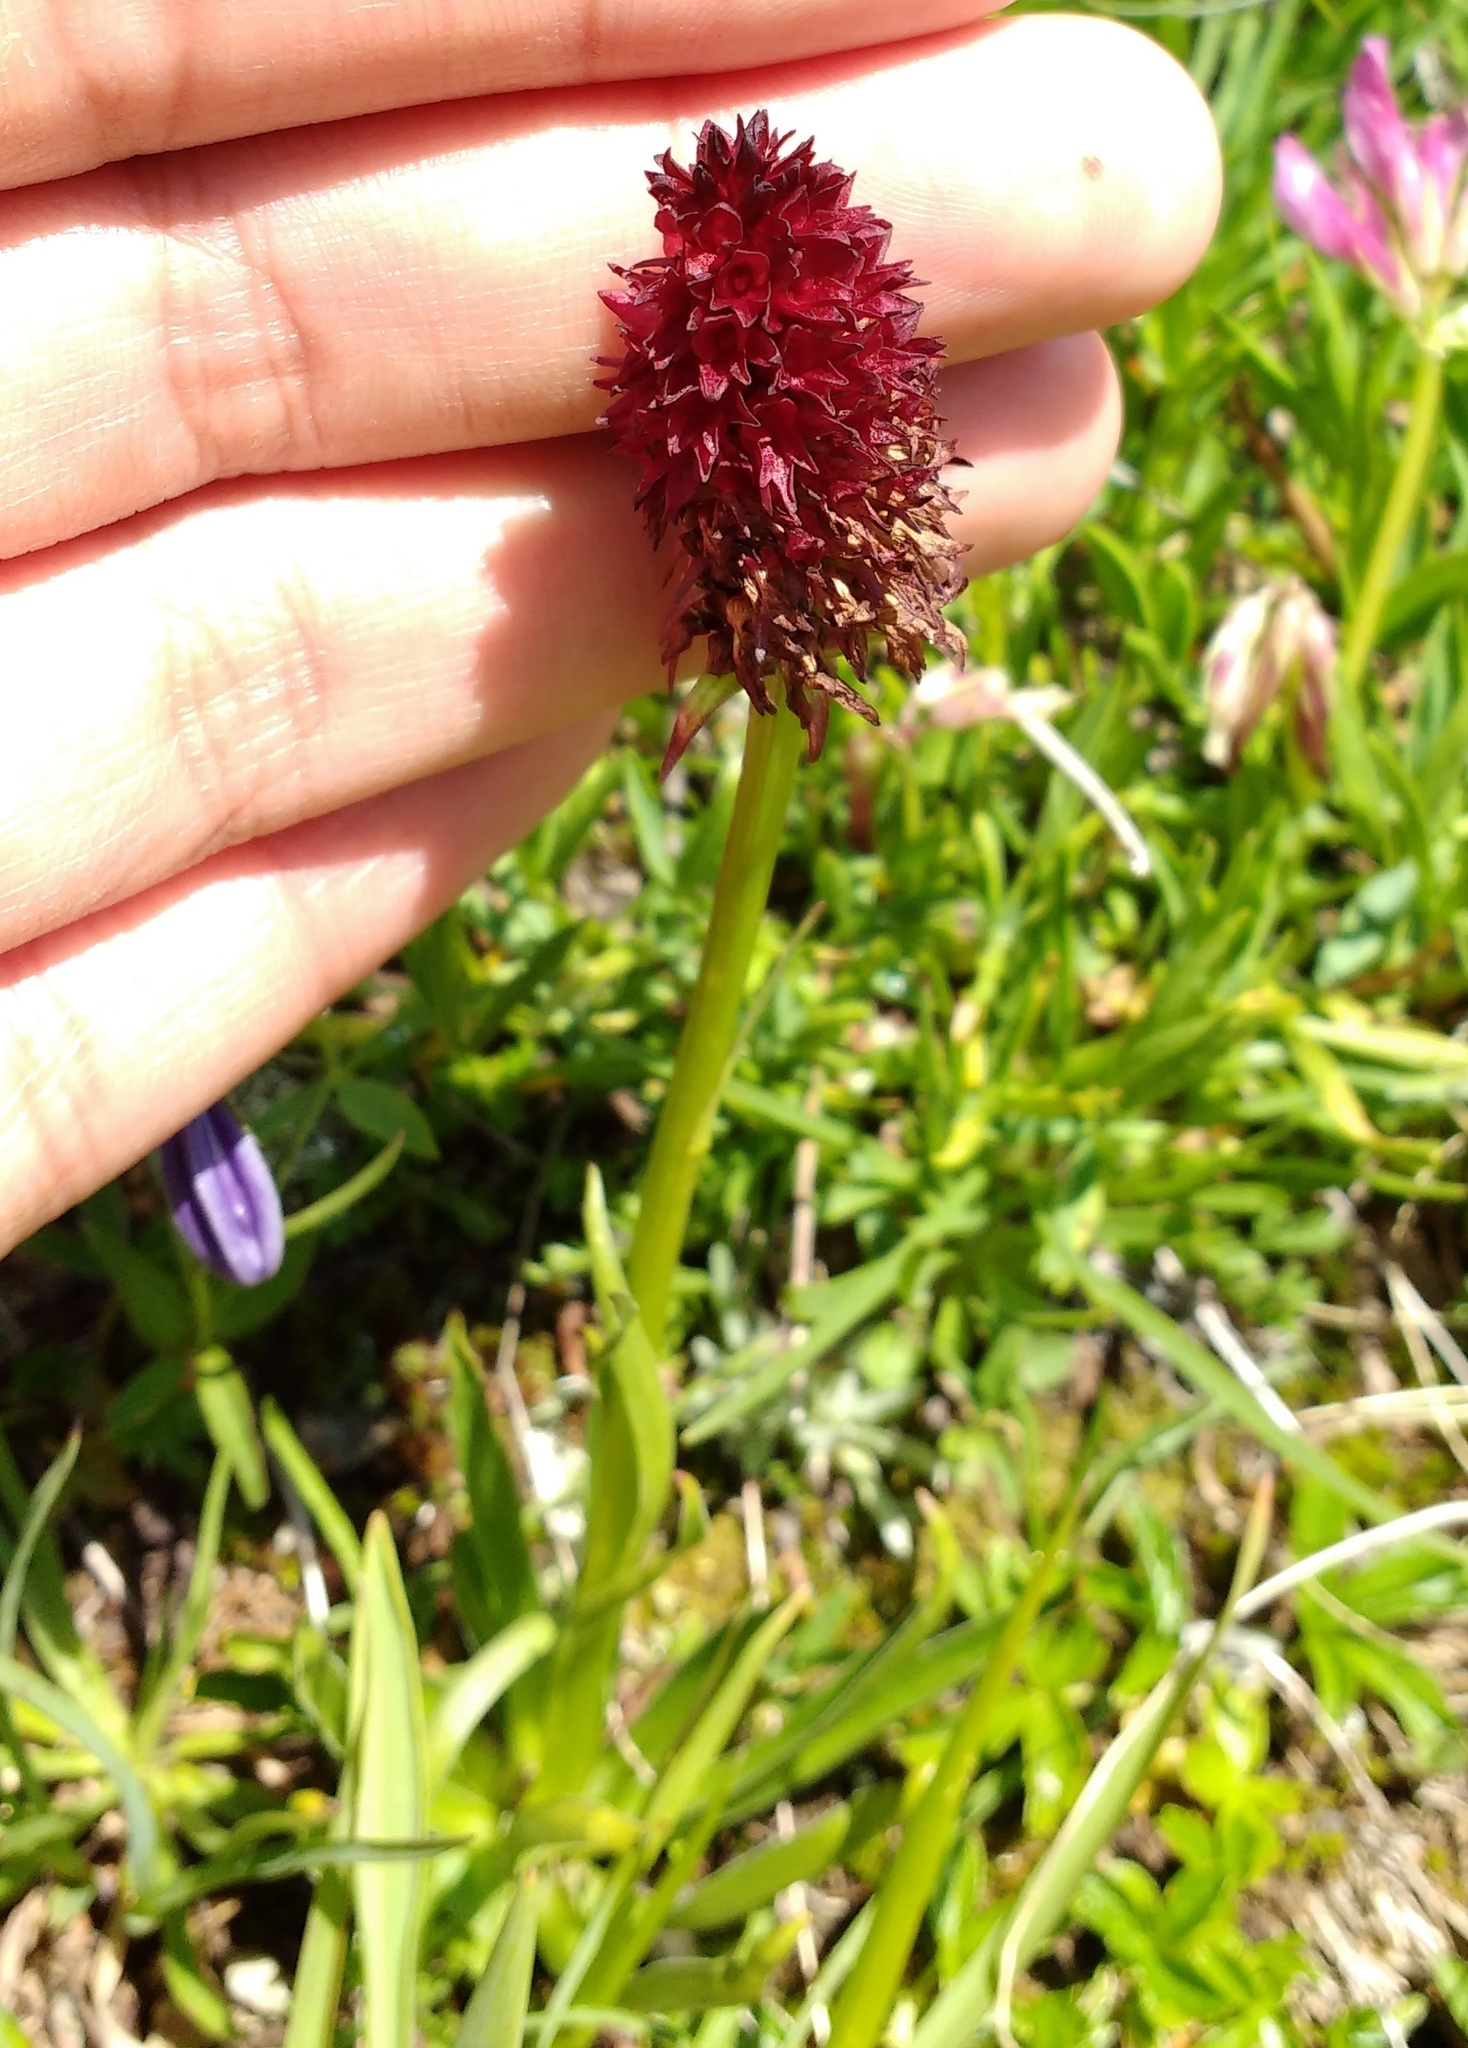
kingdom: Plantae
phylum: Tracheophyta
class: Liliopsida
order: Asparagales
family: Orchidaceae
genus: Gymnadenia
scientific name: Gymnadenia rhellicani
